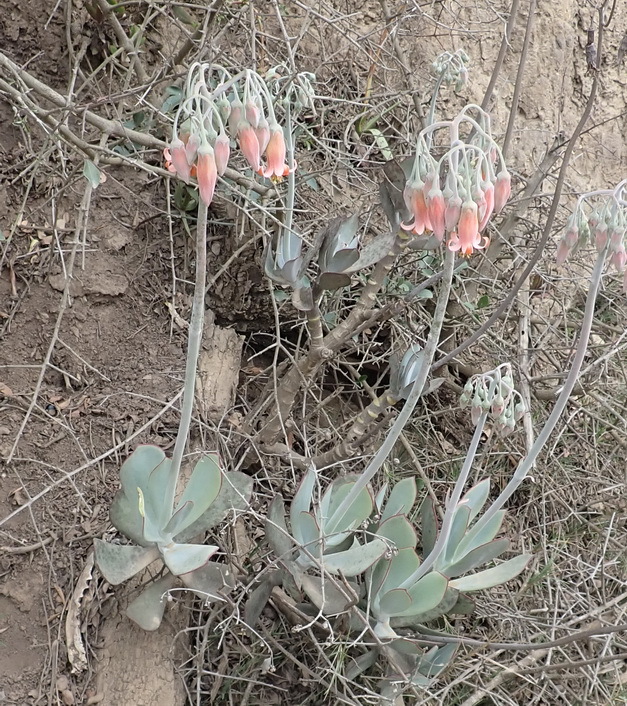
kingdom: Plantae
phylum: Tracheophyta
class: Magnoliopsida
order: Saxifragales
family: Crassulaceae
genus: Cotyledon
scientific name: Cotyledon orbiculata
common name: Pig's ear
